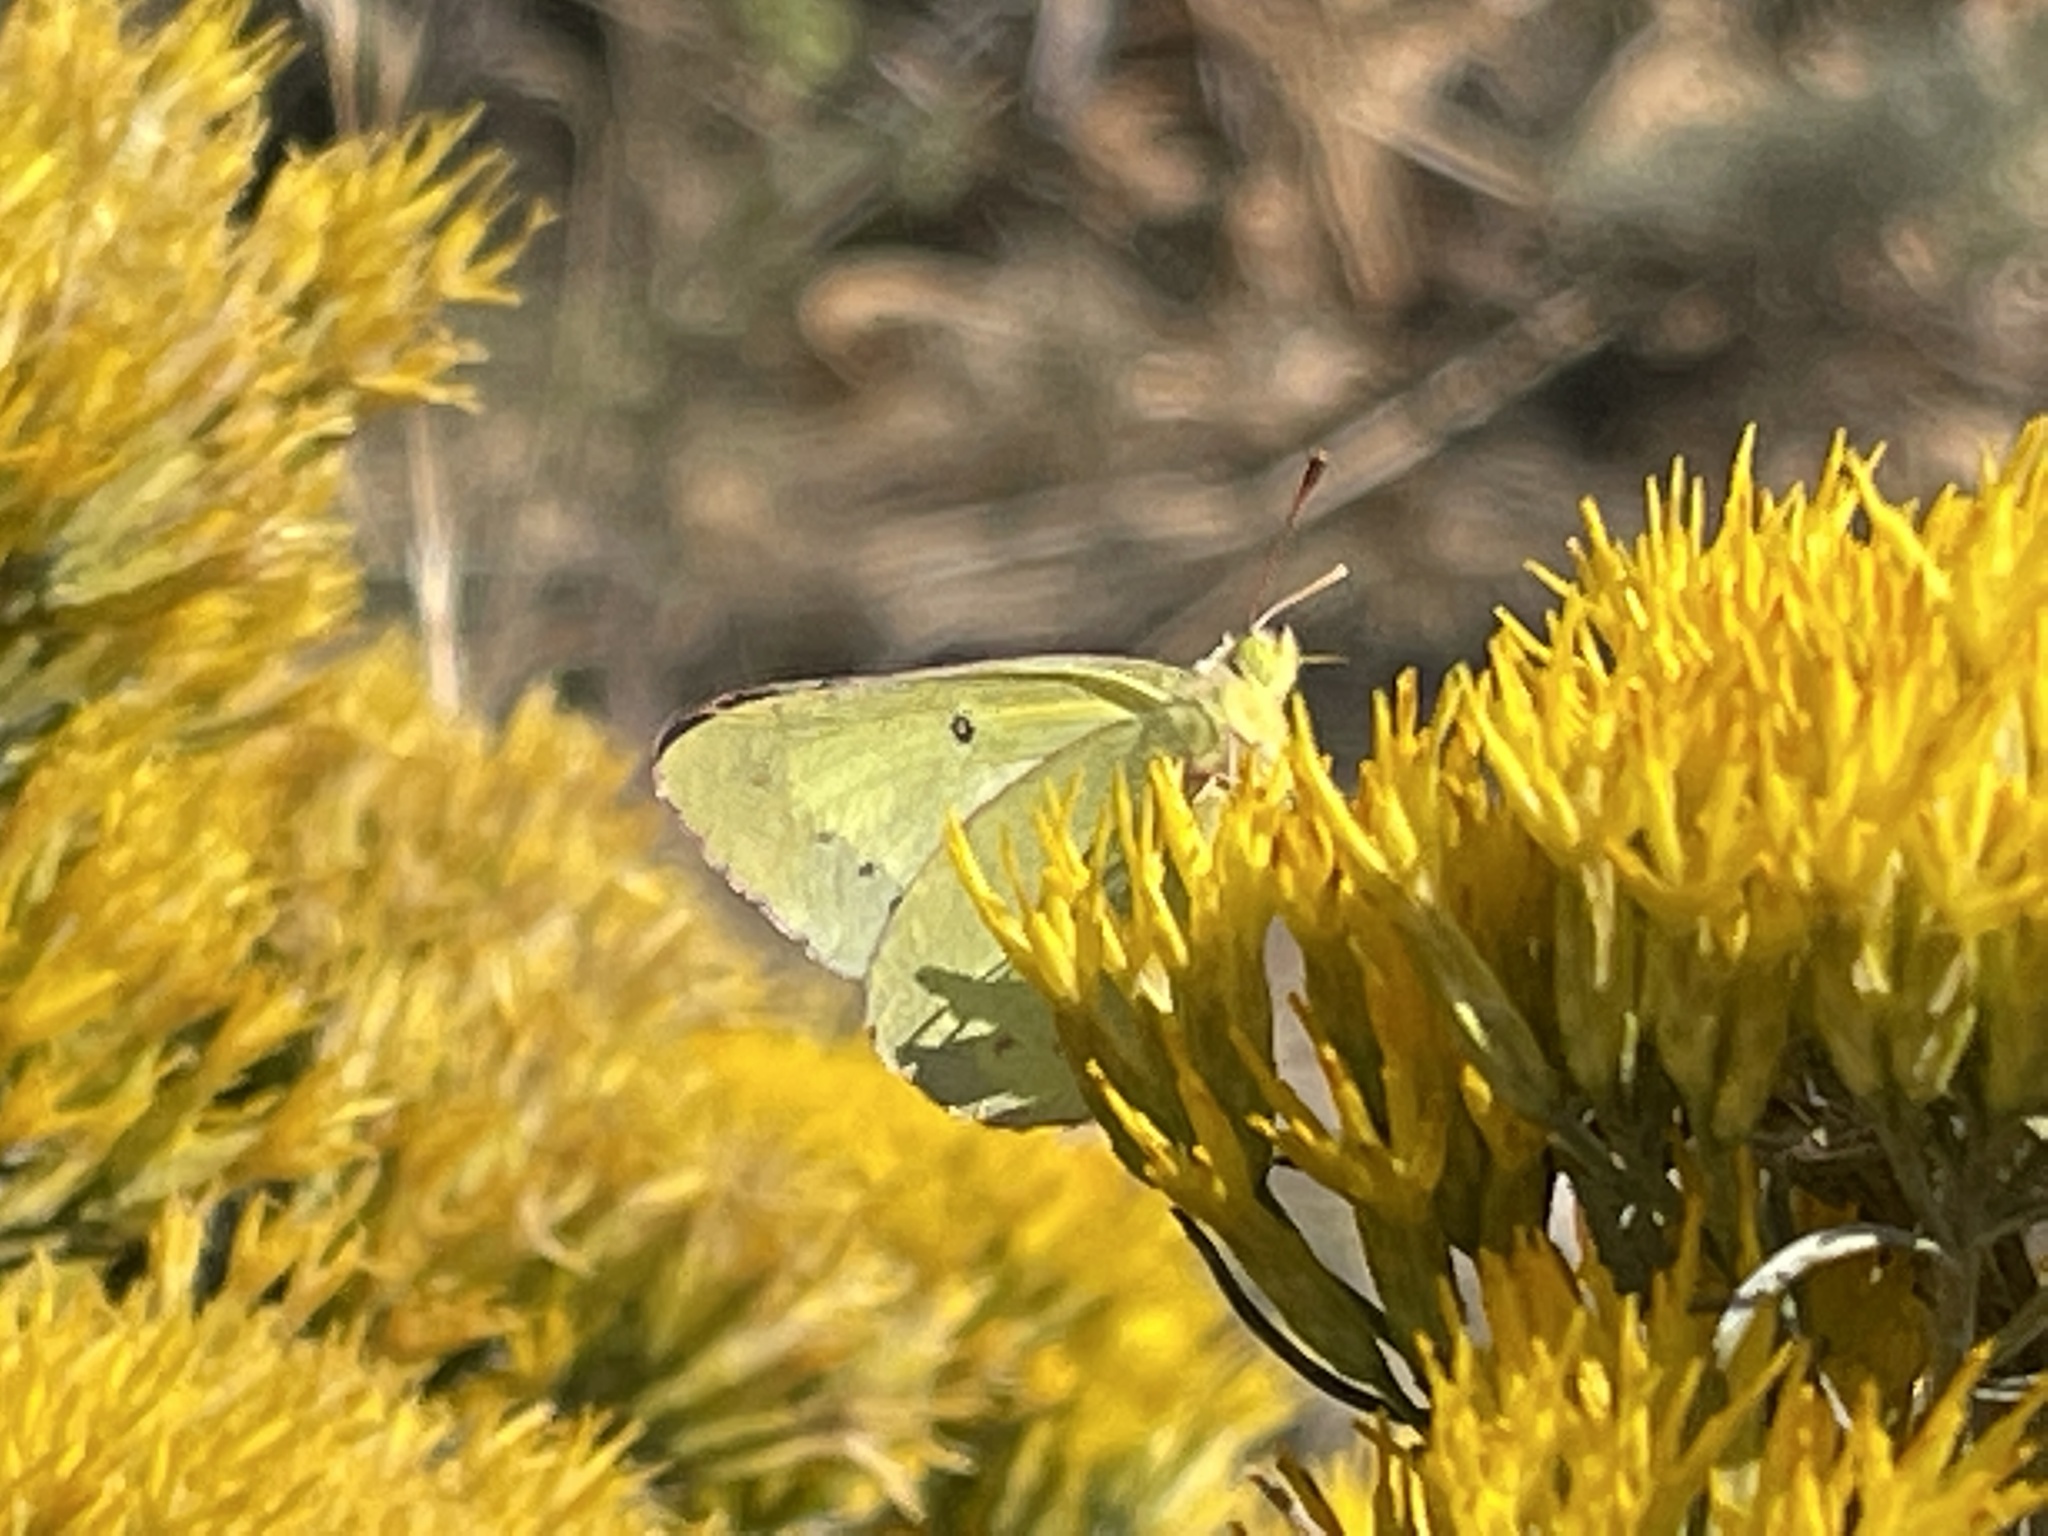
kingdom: Animalia
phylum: Arthropoda
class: Insecta
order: Lepidoptera
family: Pieridae
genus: Colias
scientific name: Colias philodice
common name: Clouded sulphur
